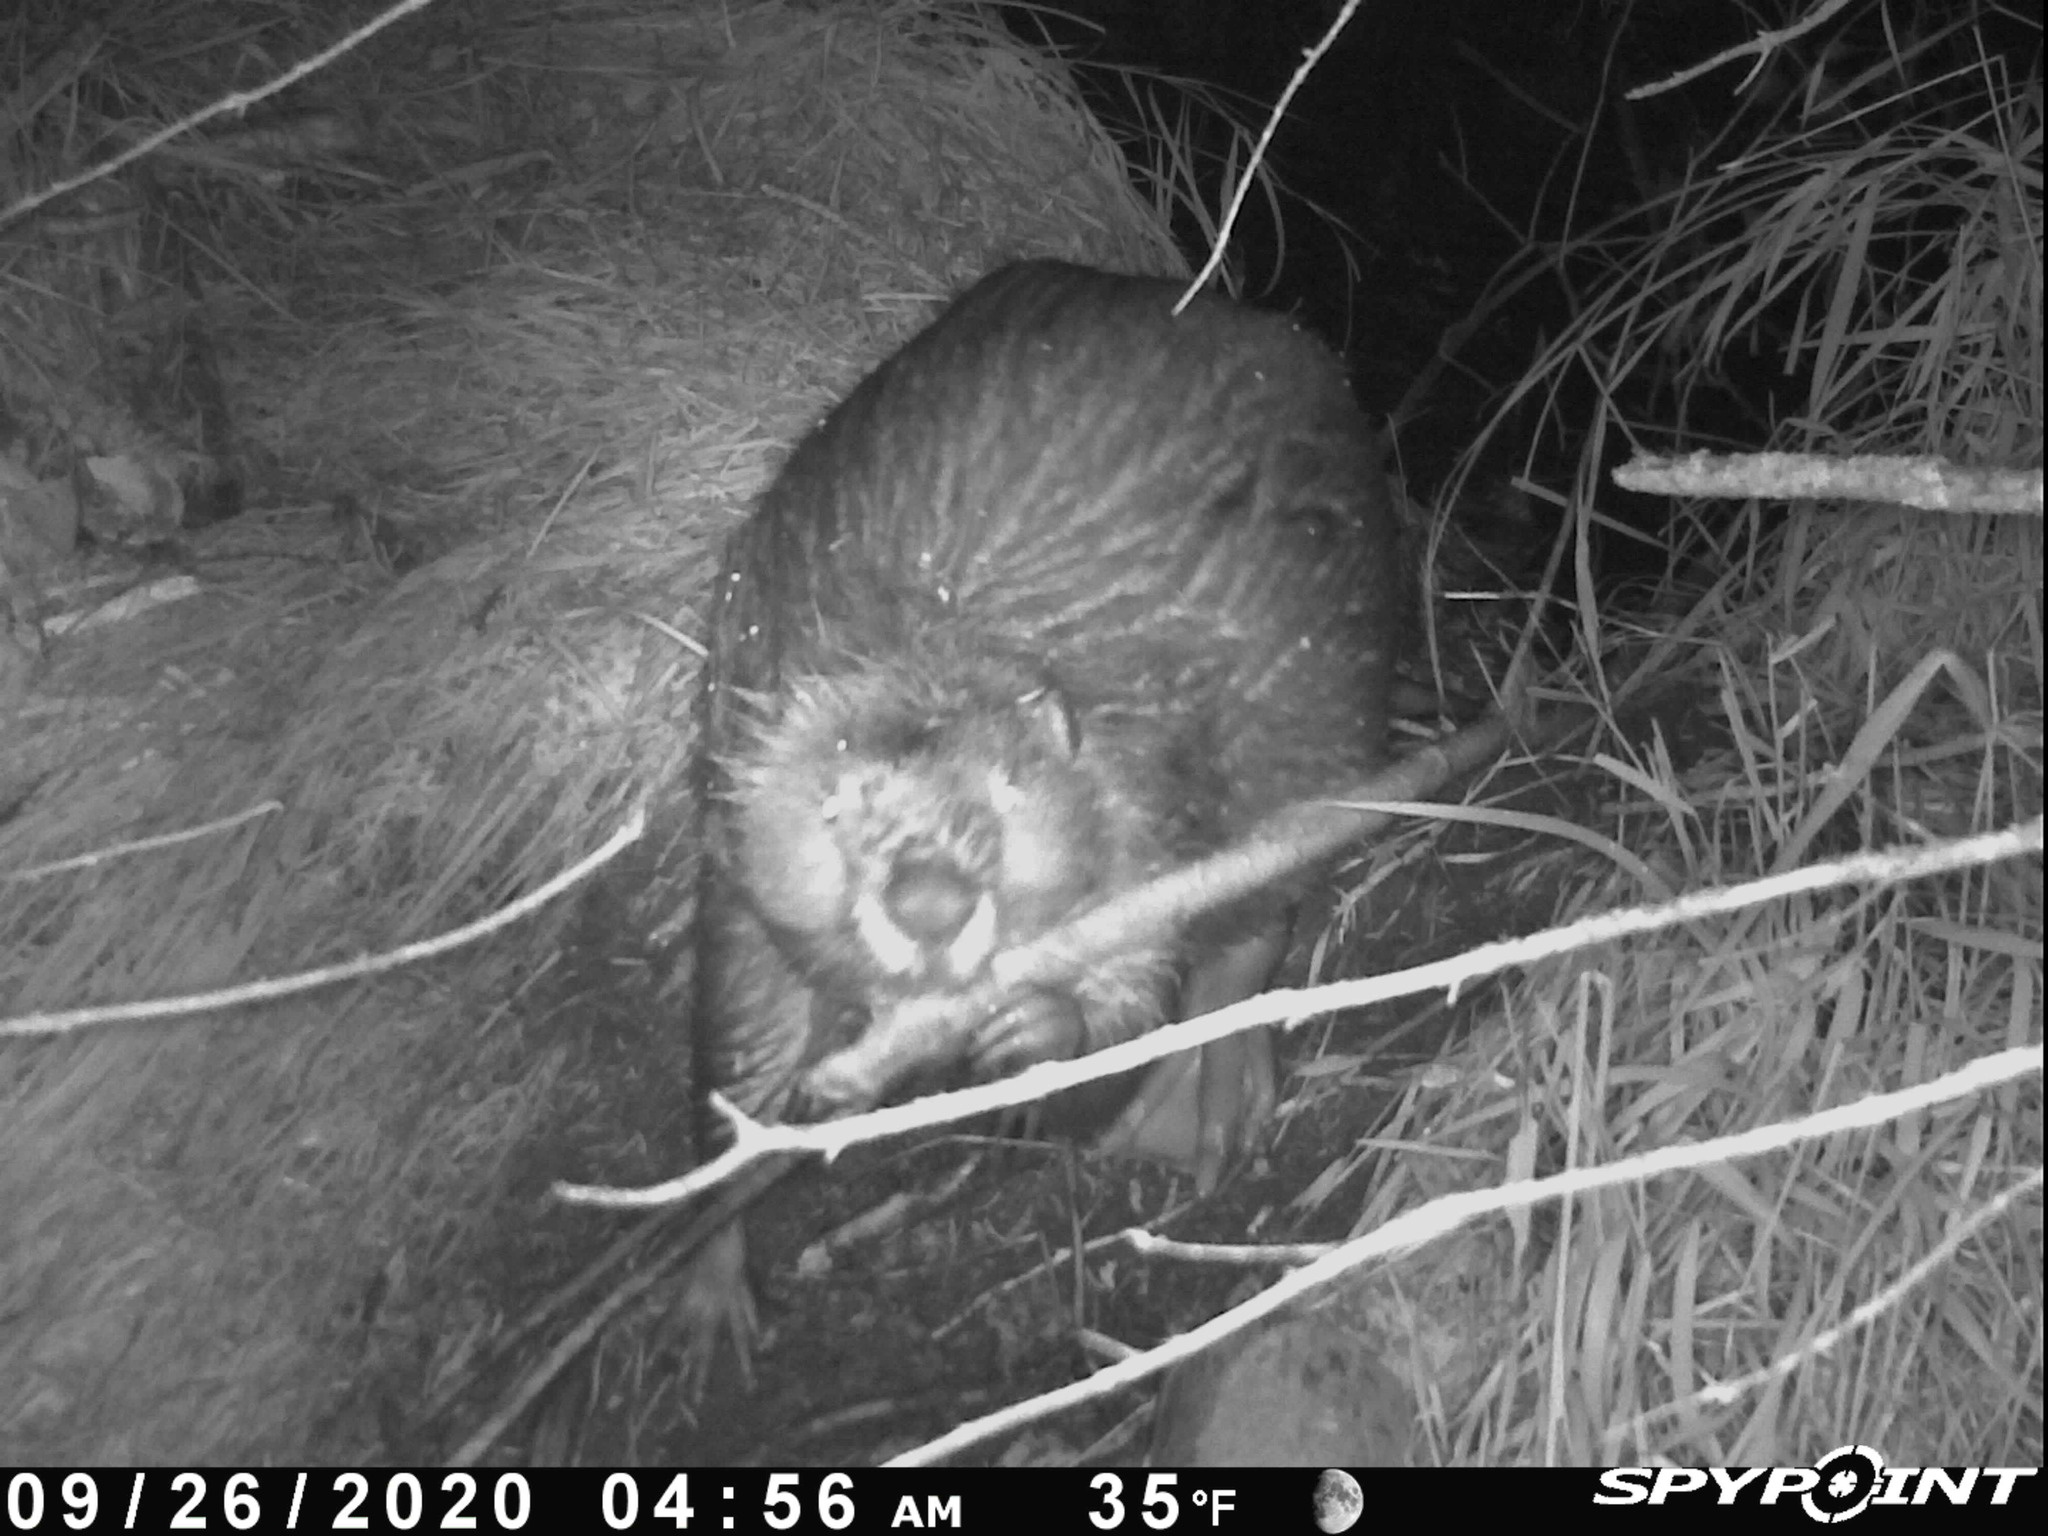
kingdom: Animalia
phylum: Chordata
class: Mammalia
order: Rodentia
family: Castoridae
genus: Castor
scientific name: Castor canadensis
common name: American beaver
